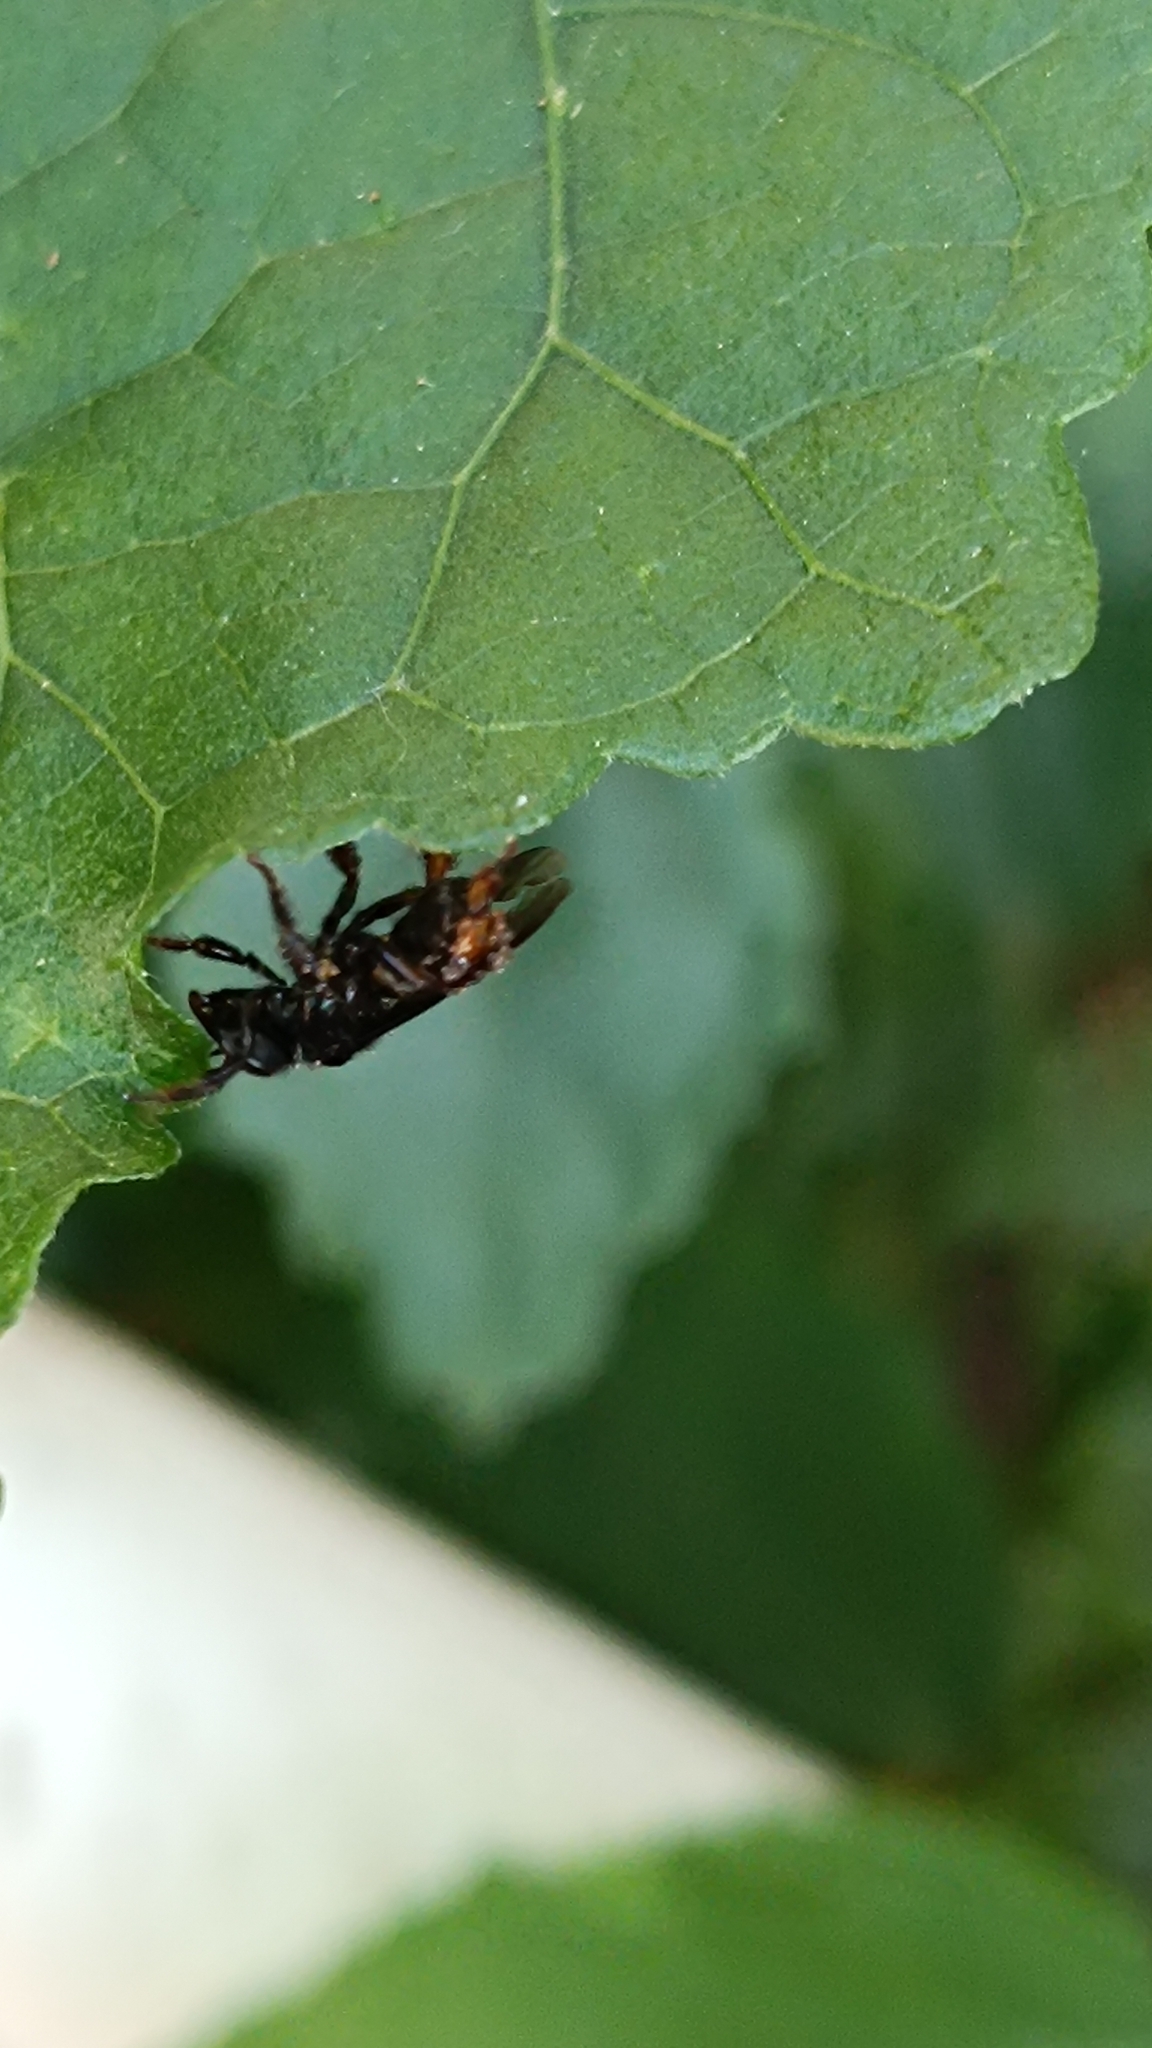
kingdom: Animalia
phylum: Arthropoda
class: Insecta
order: Hymenoptera
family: Apidae
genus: Trigona
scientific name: Trigona spinipes
